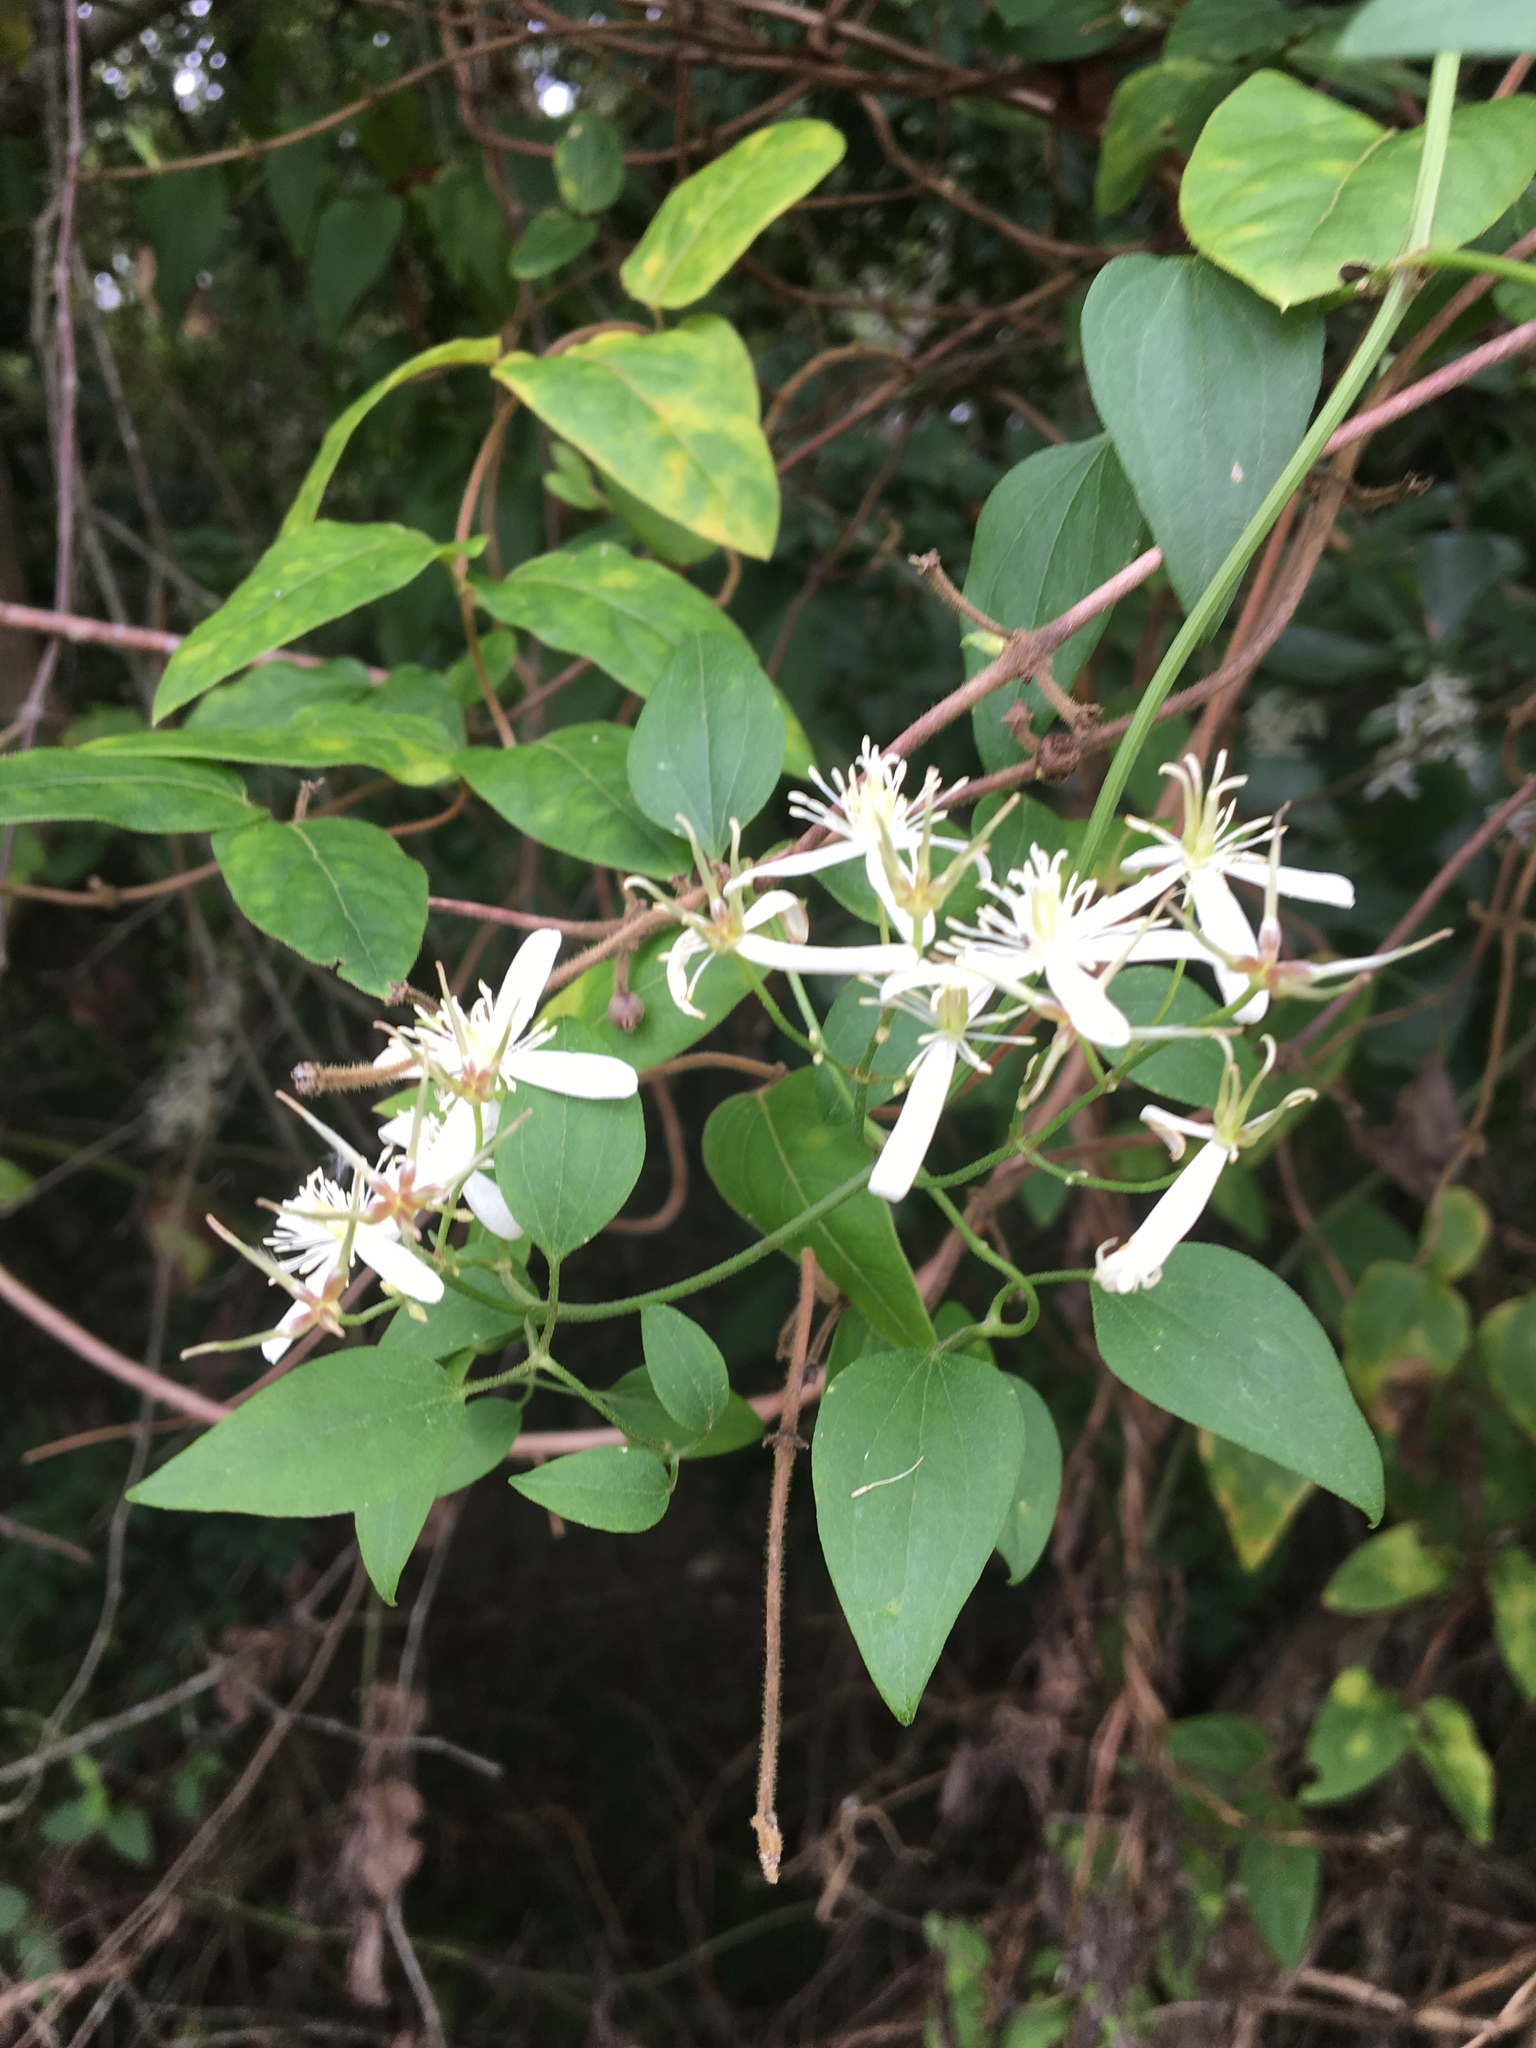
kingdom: Plantae
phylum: Tracheophyta
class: Magnoliopsida
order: Ranunculales
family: Ranunculaceae
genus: Clematis
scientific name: Clematis terniflora
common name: Sweet autumn clematis
